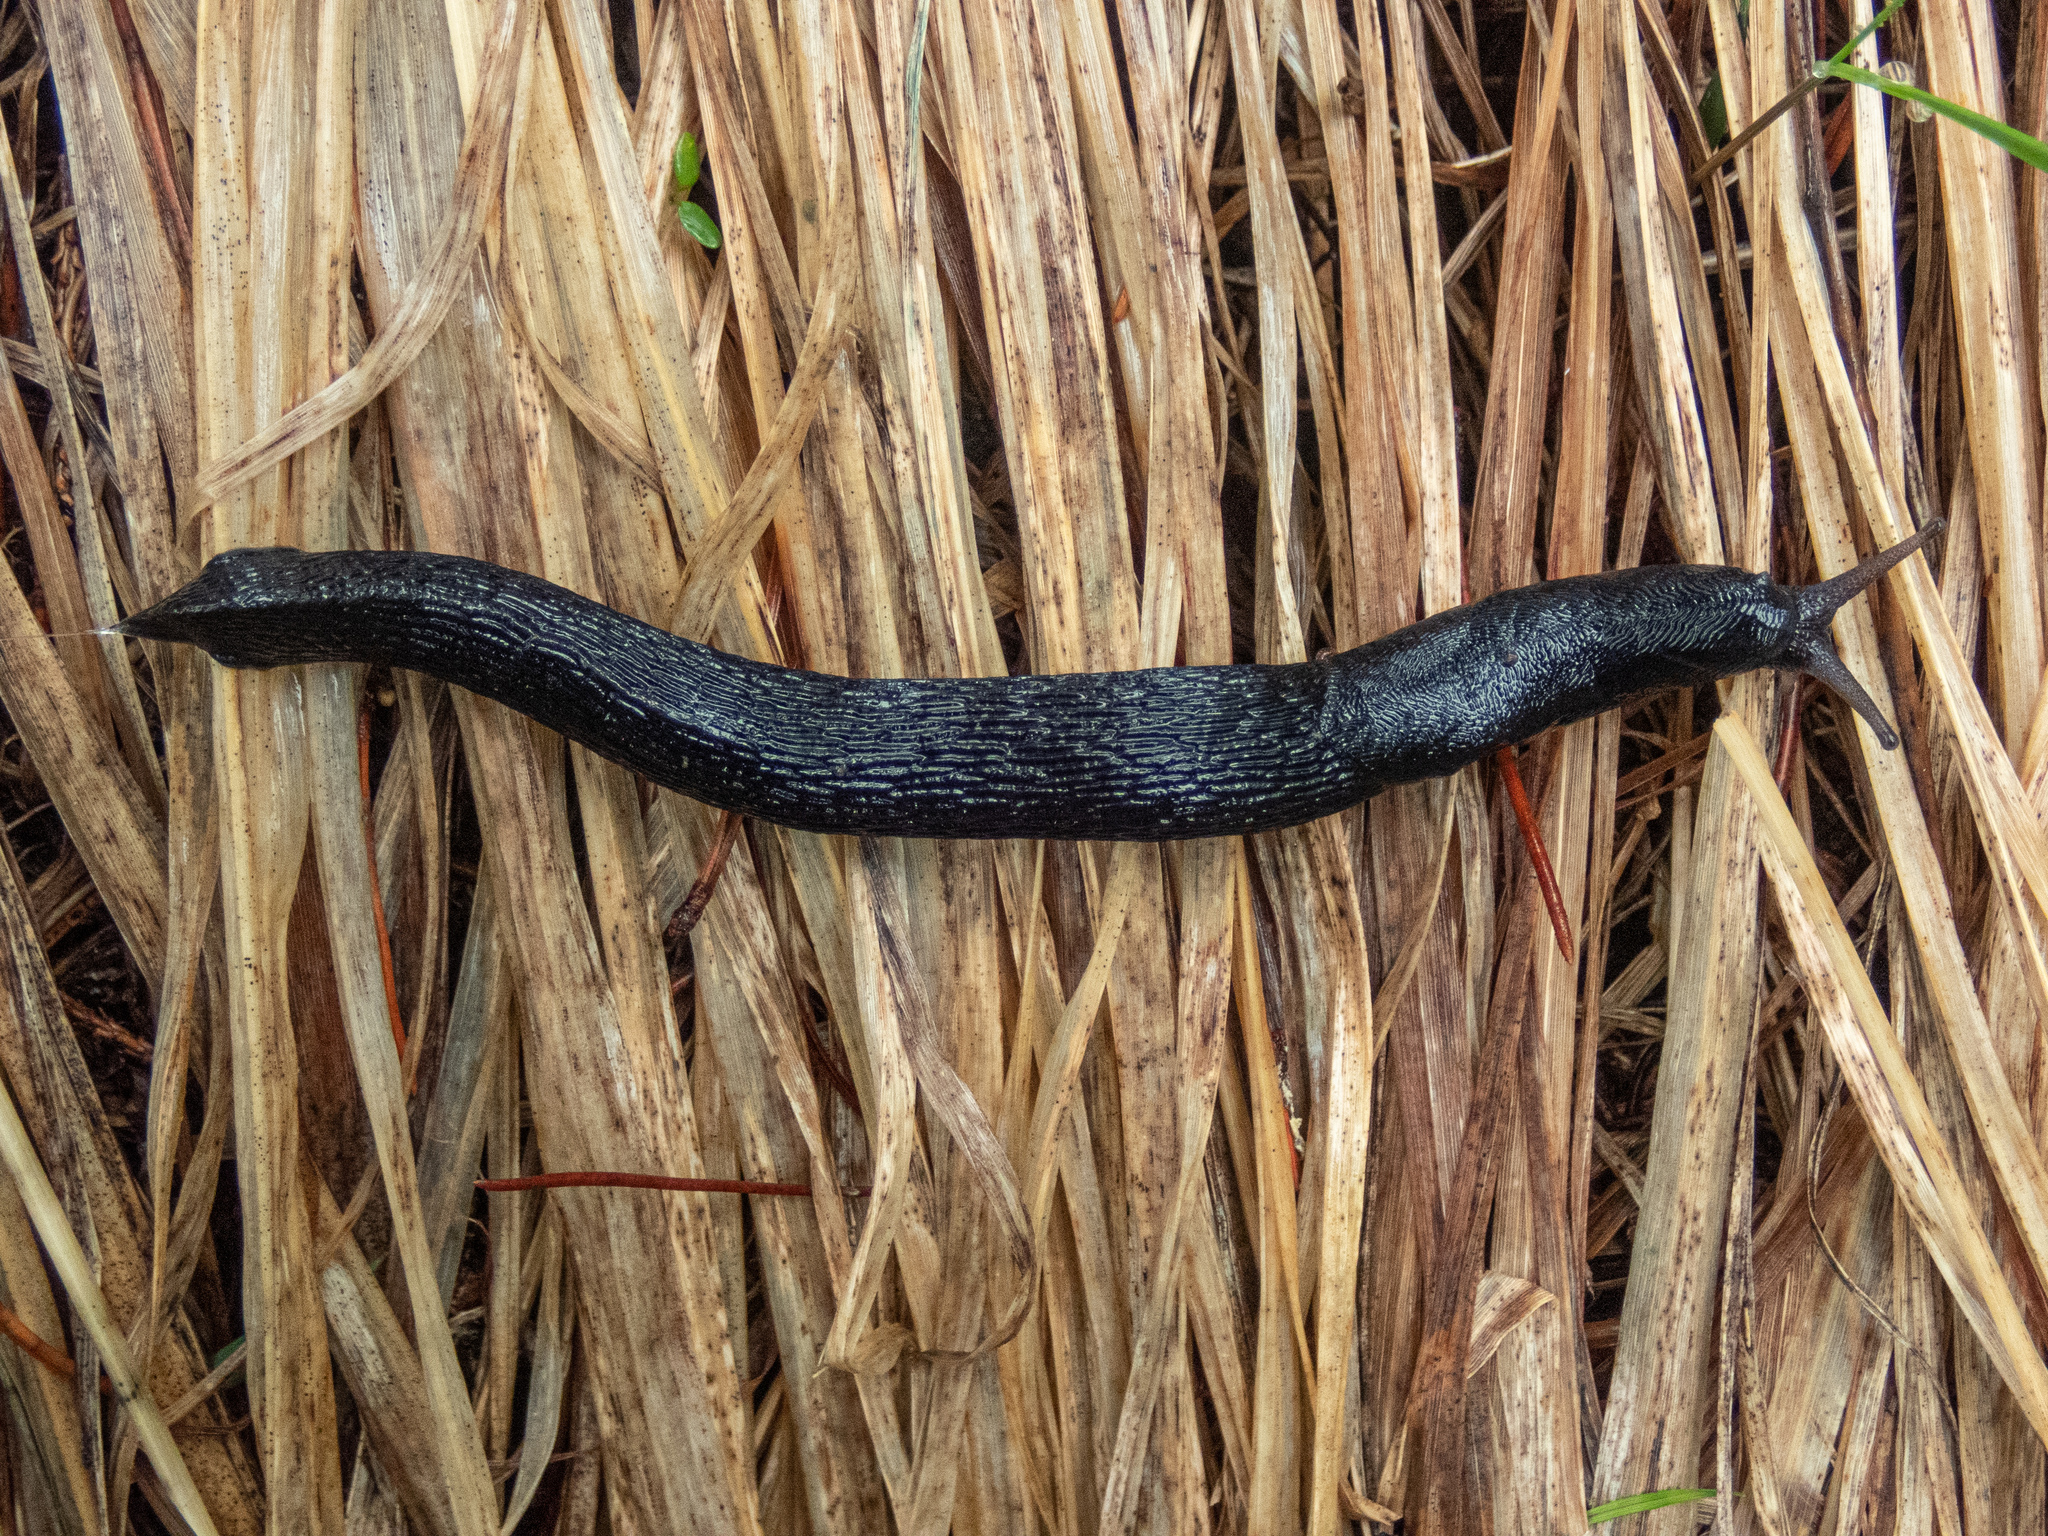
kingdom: Animalia
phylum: Mollusca
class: Gastropoda
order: Stylommatophora
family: Limacidae
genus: Limax
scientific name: Limax cinereoniger
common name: Ash-black slug
